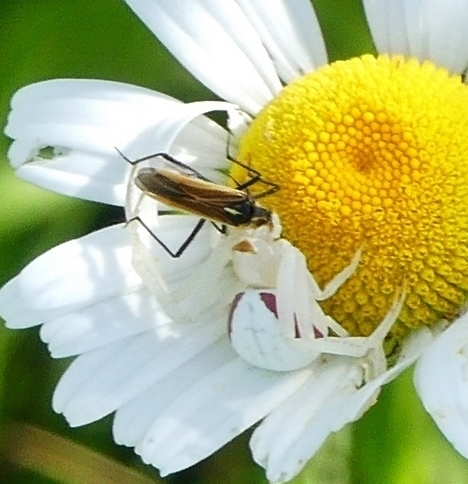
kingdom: Animalia
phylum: Arthropoda
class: Arachnida
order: Araneae
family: Thomisidae
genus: Misumena
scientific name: Misumena vatia
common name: Goldenrod crab spider
